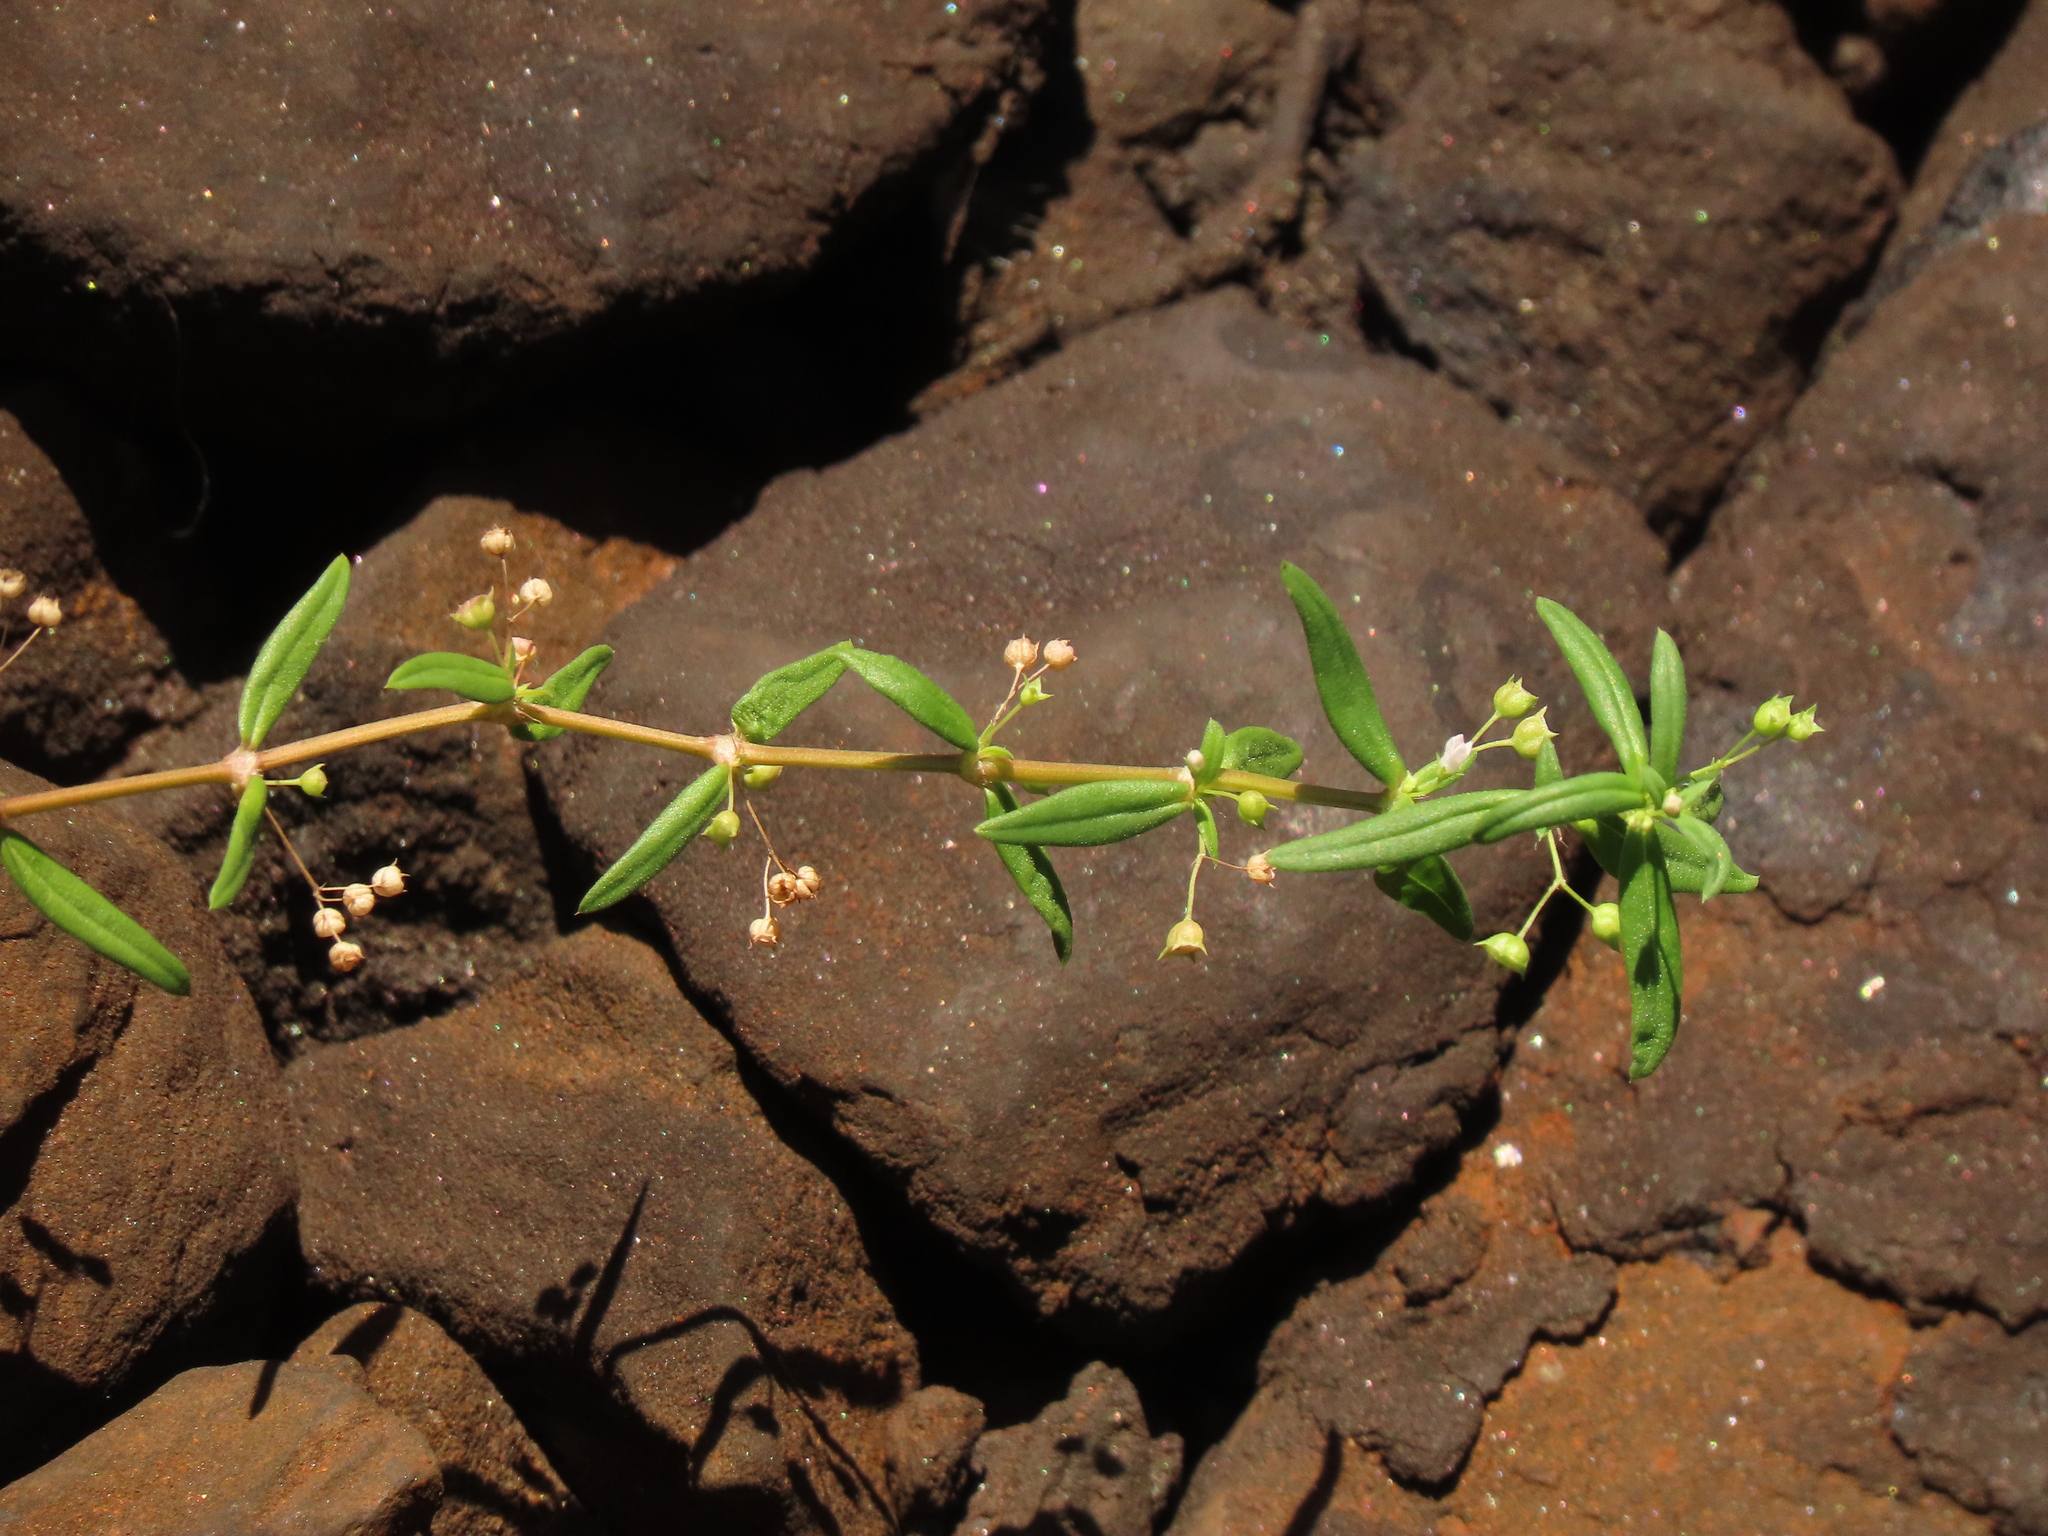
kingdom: Plantae
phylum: Tracheophyta
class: Magnoliopsida
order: Gentianales
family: Rubiaceae
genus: Oldenlandia
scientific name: Oldenlandia corymbosa
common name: Flat-top mille graines
